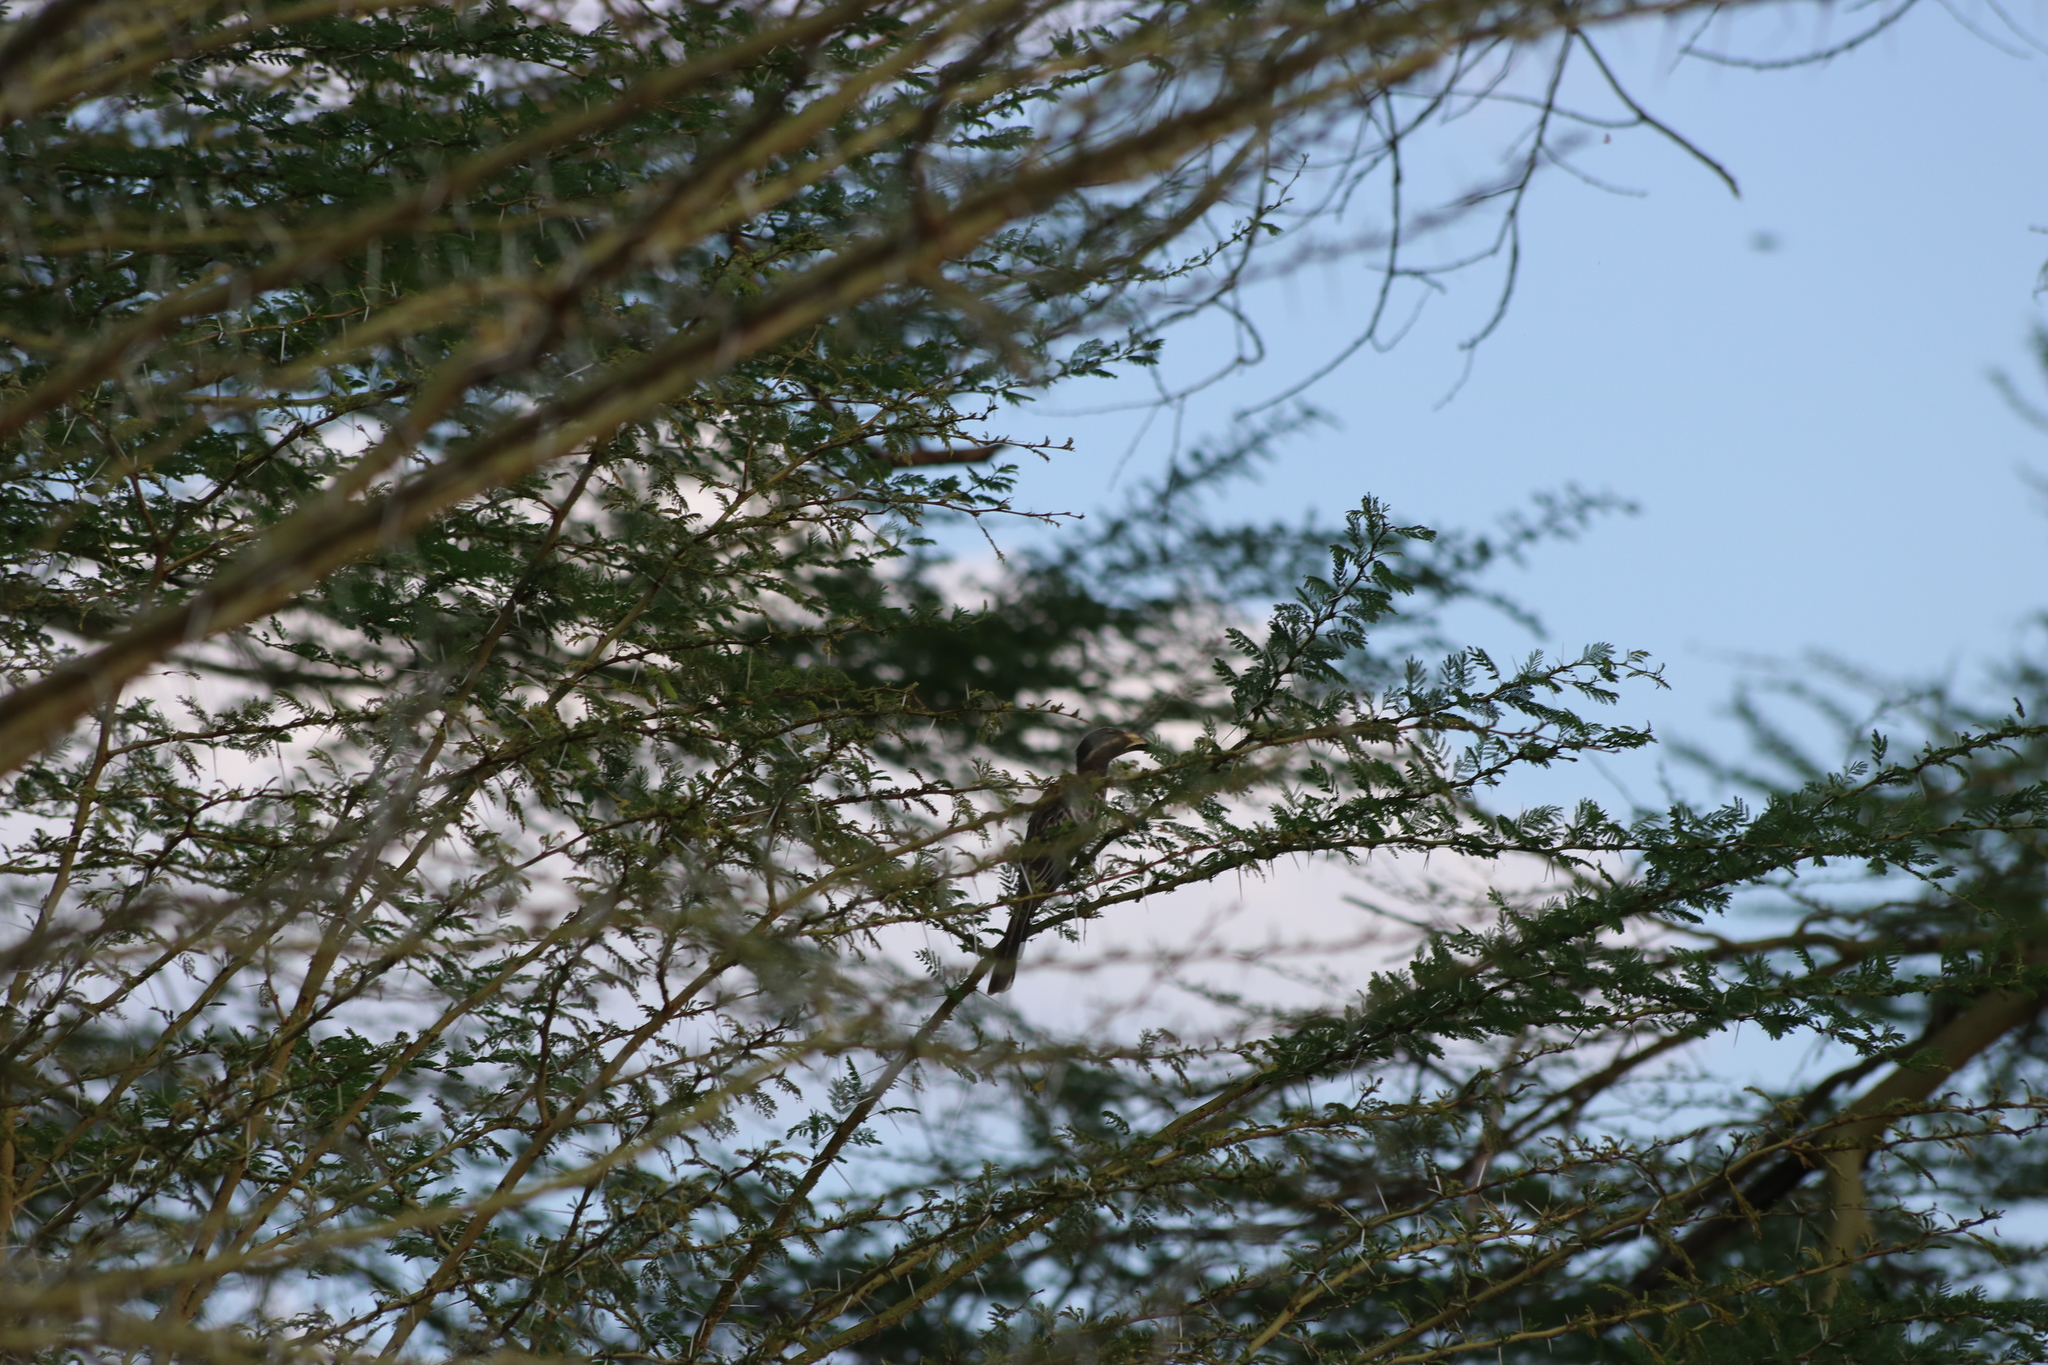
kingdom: Animalia
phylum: Chordata
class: Aves
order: Bucerotiformes
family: Bucerotidae
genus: Lophoceros
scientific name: Lophoceros nasutus
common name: African grey hornbill
